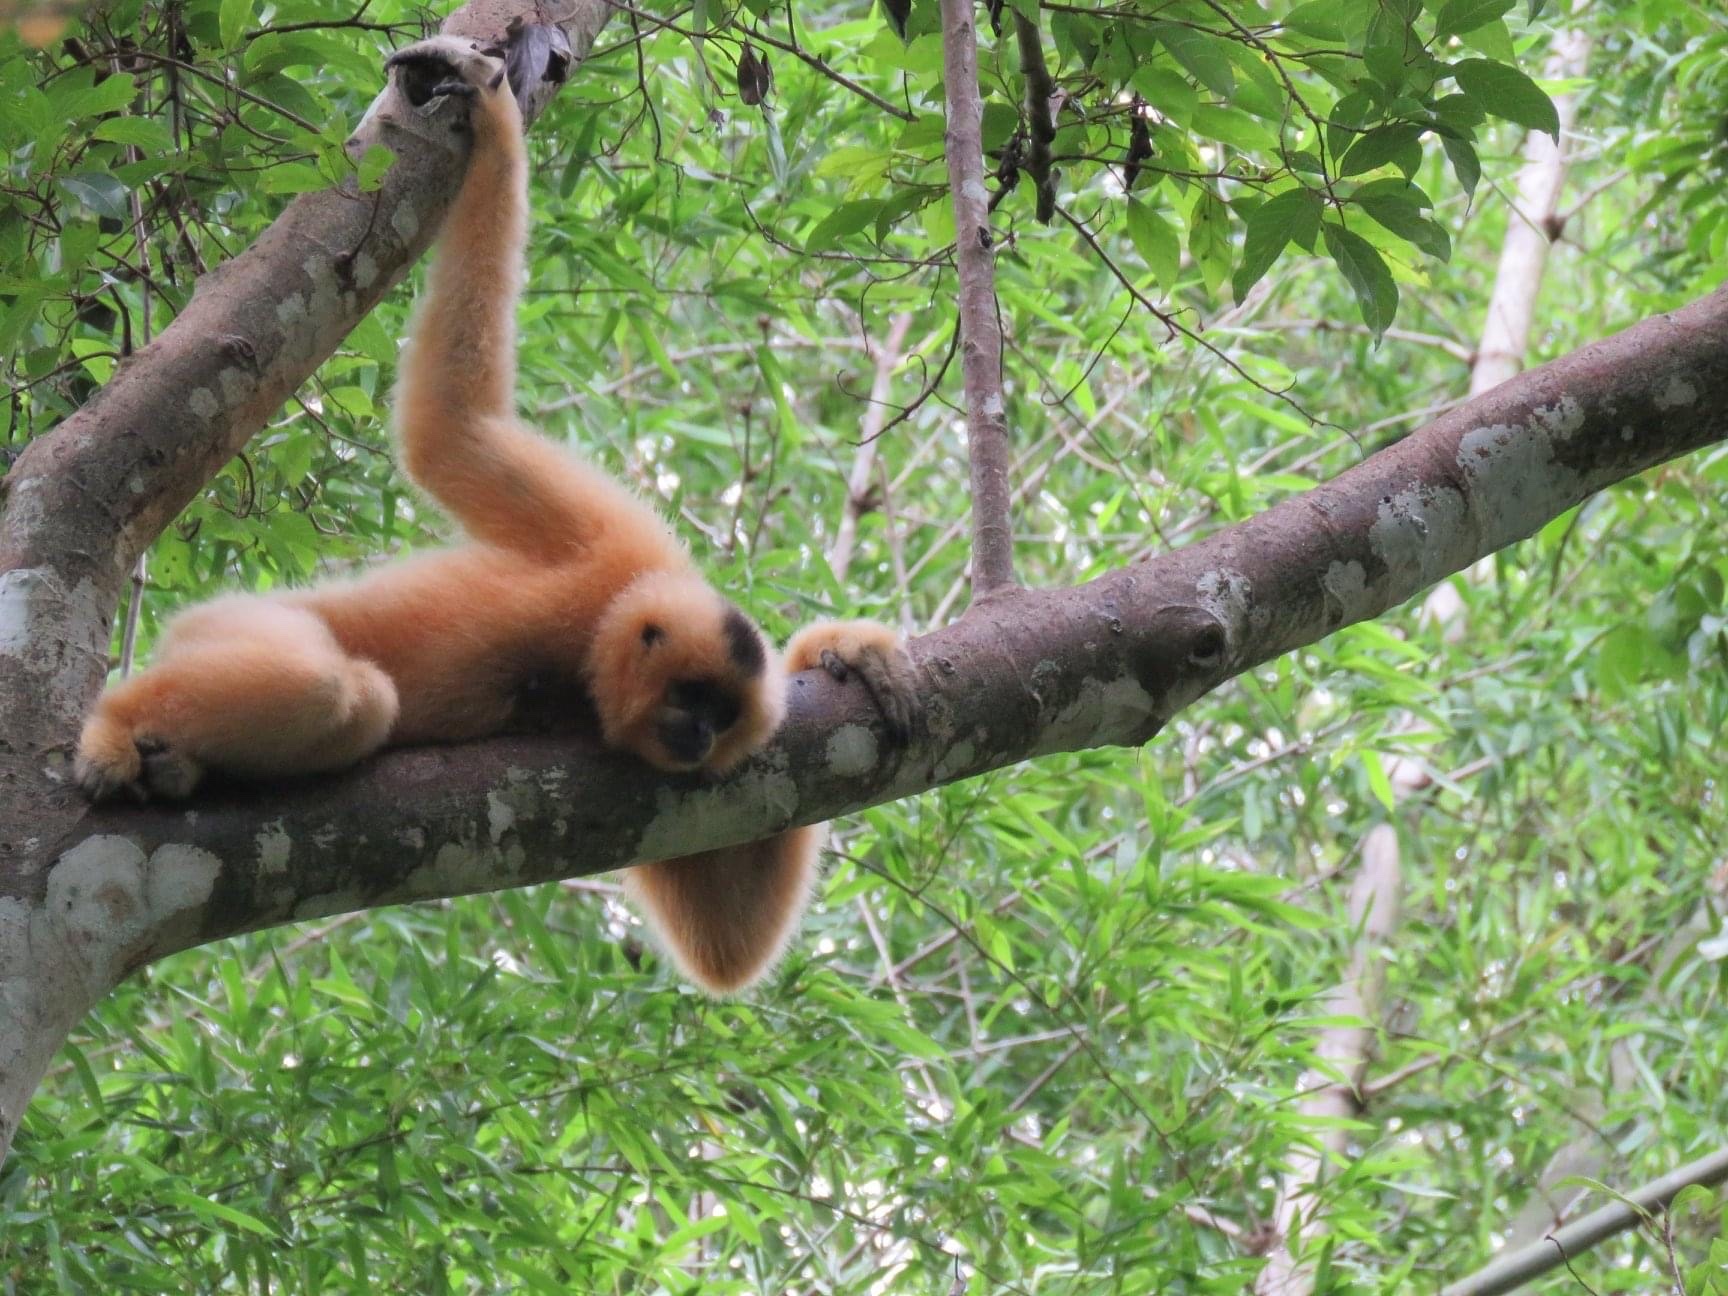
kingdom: Animalia
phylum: Chordata
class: Mammalia
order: Primates
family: Hylobatidae
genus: Nomascus
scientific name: Nomascus gabriellae
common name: Red-cheeked gibbon
